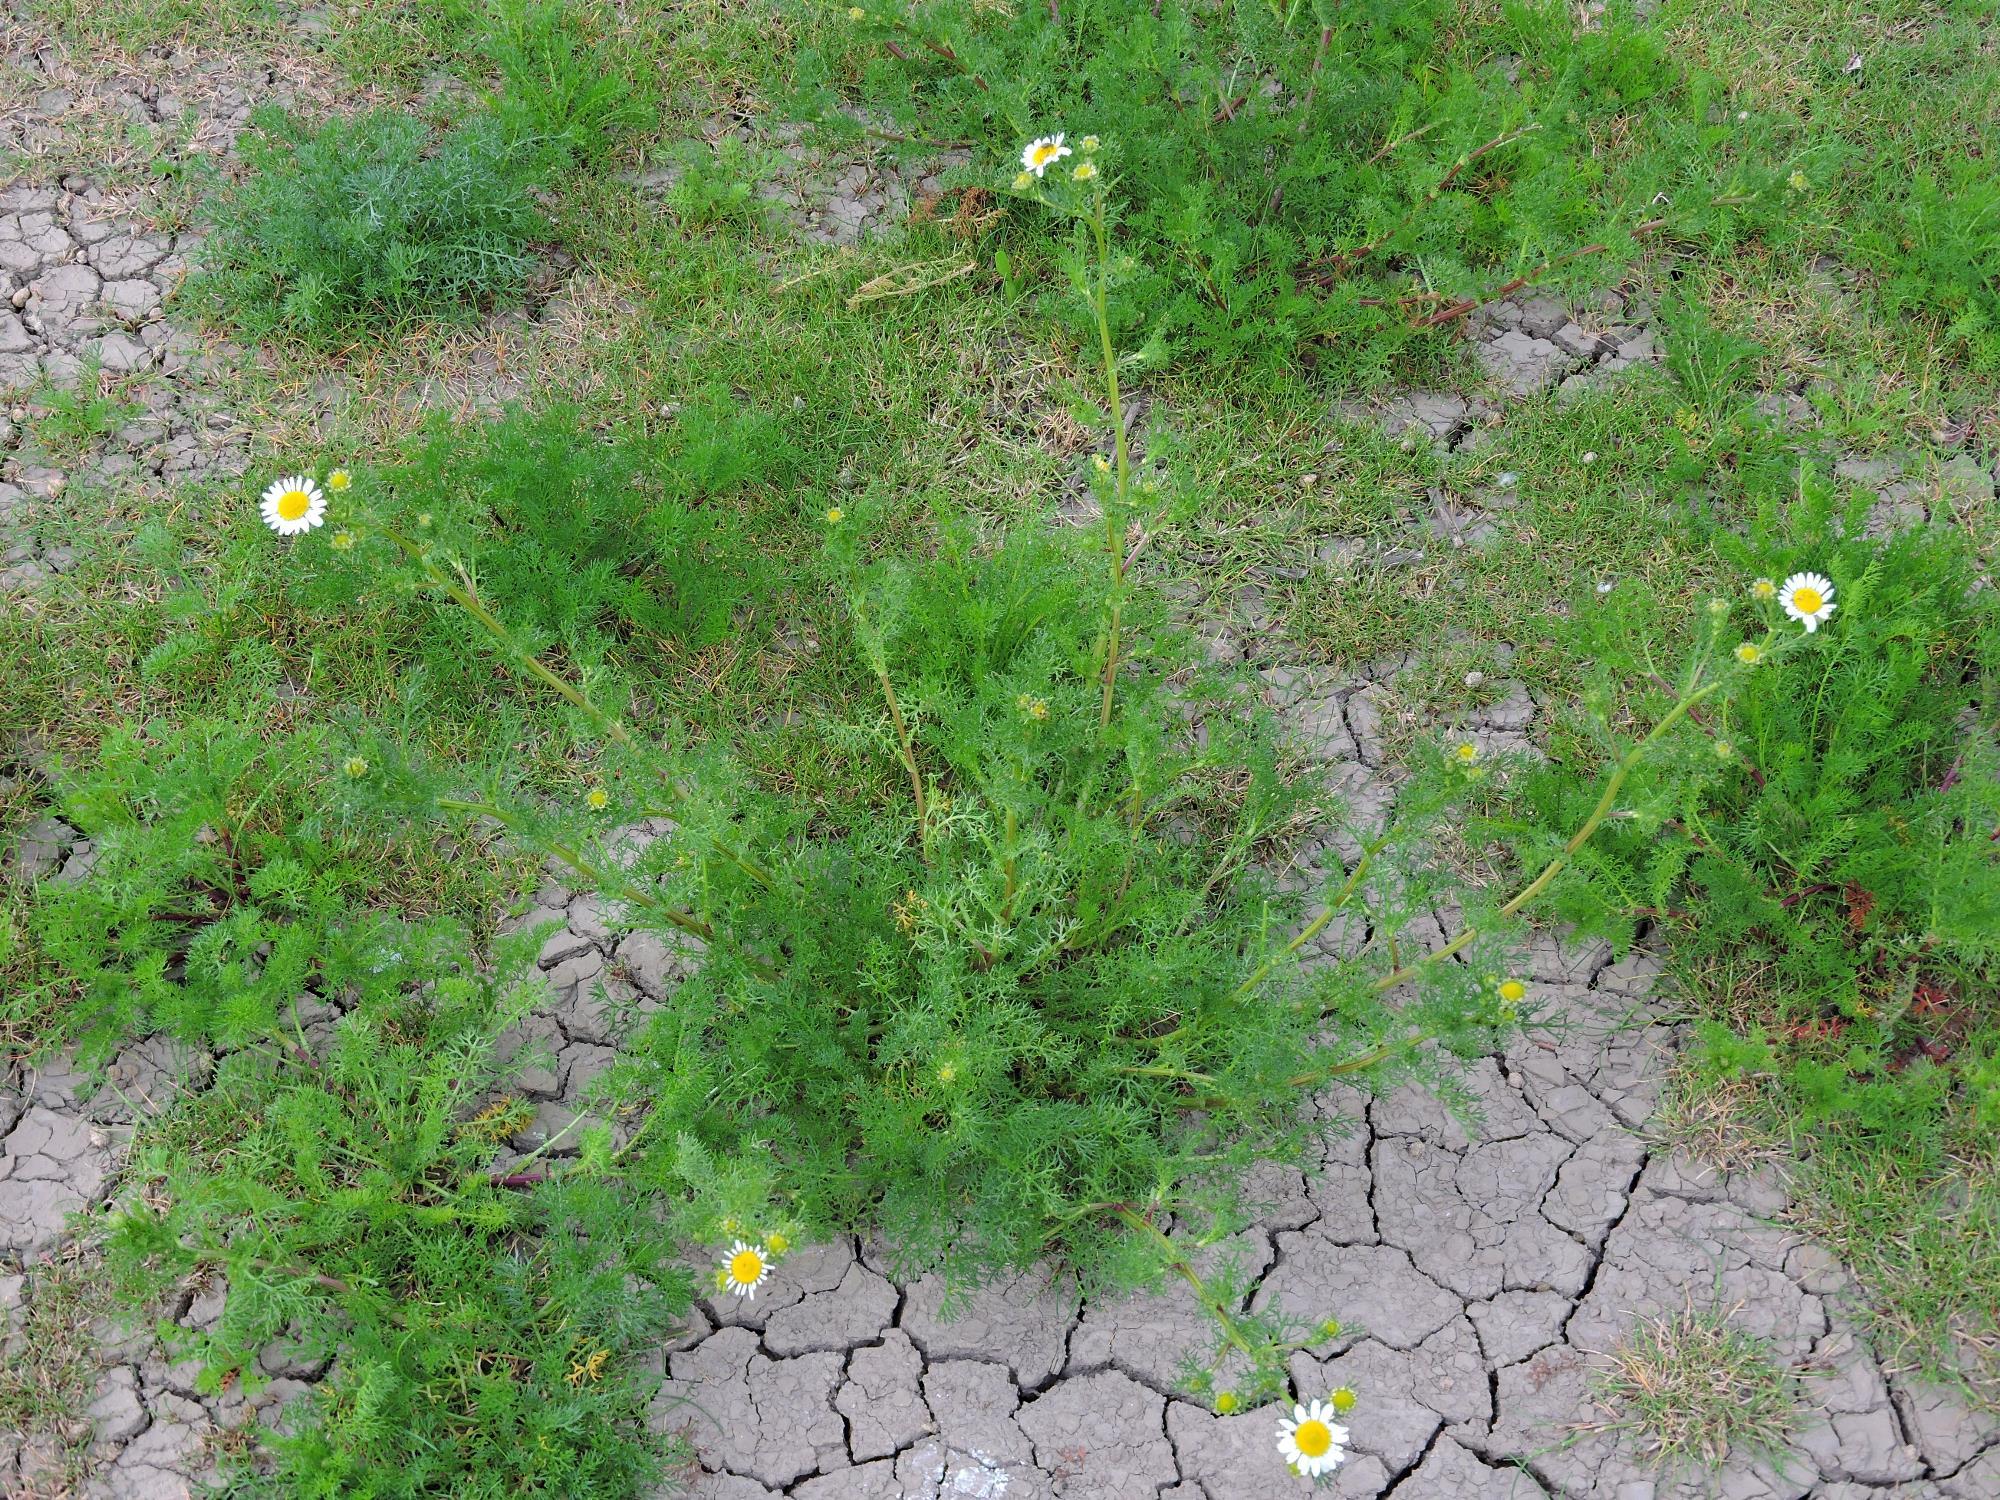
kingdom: Plantae
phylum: Tracheophyta
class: Magnoliopsida
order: Asterales
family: Asteraceae
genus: Tripleurospermum
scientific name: Tripleurospermum maritimum
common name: Sea mayweed
